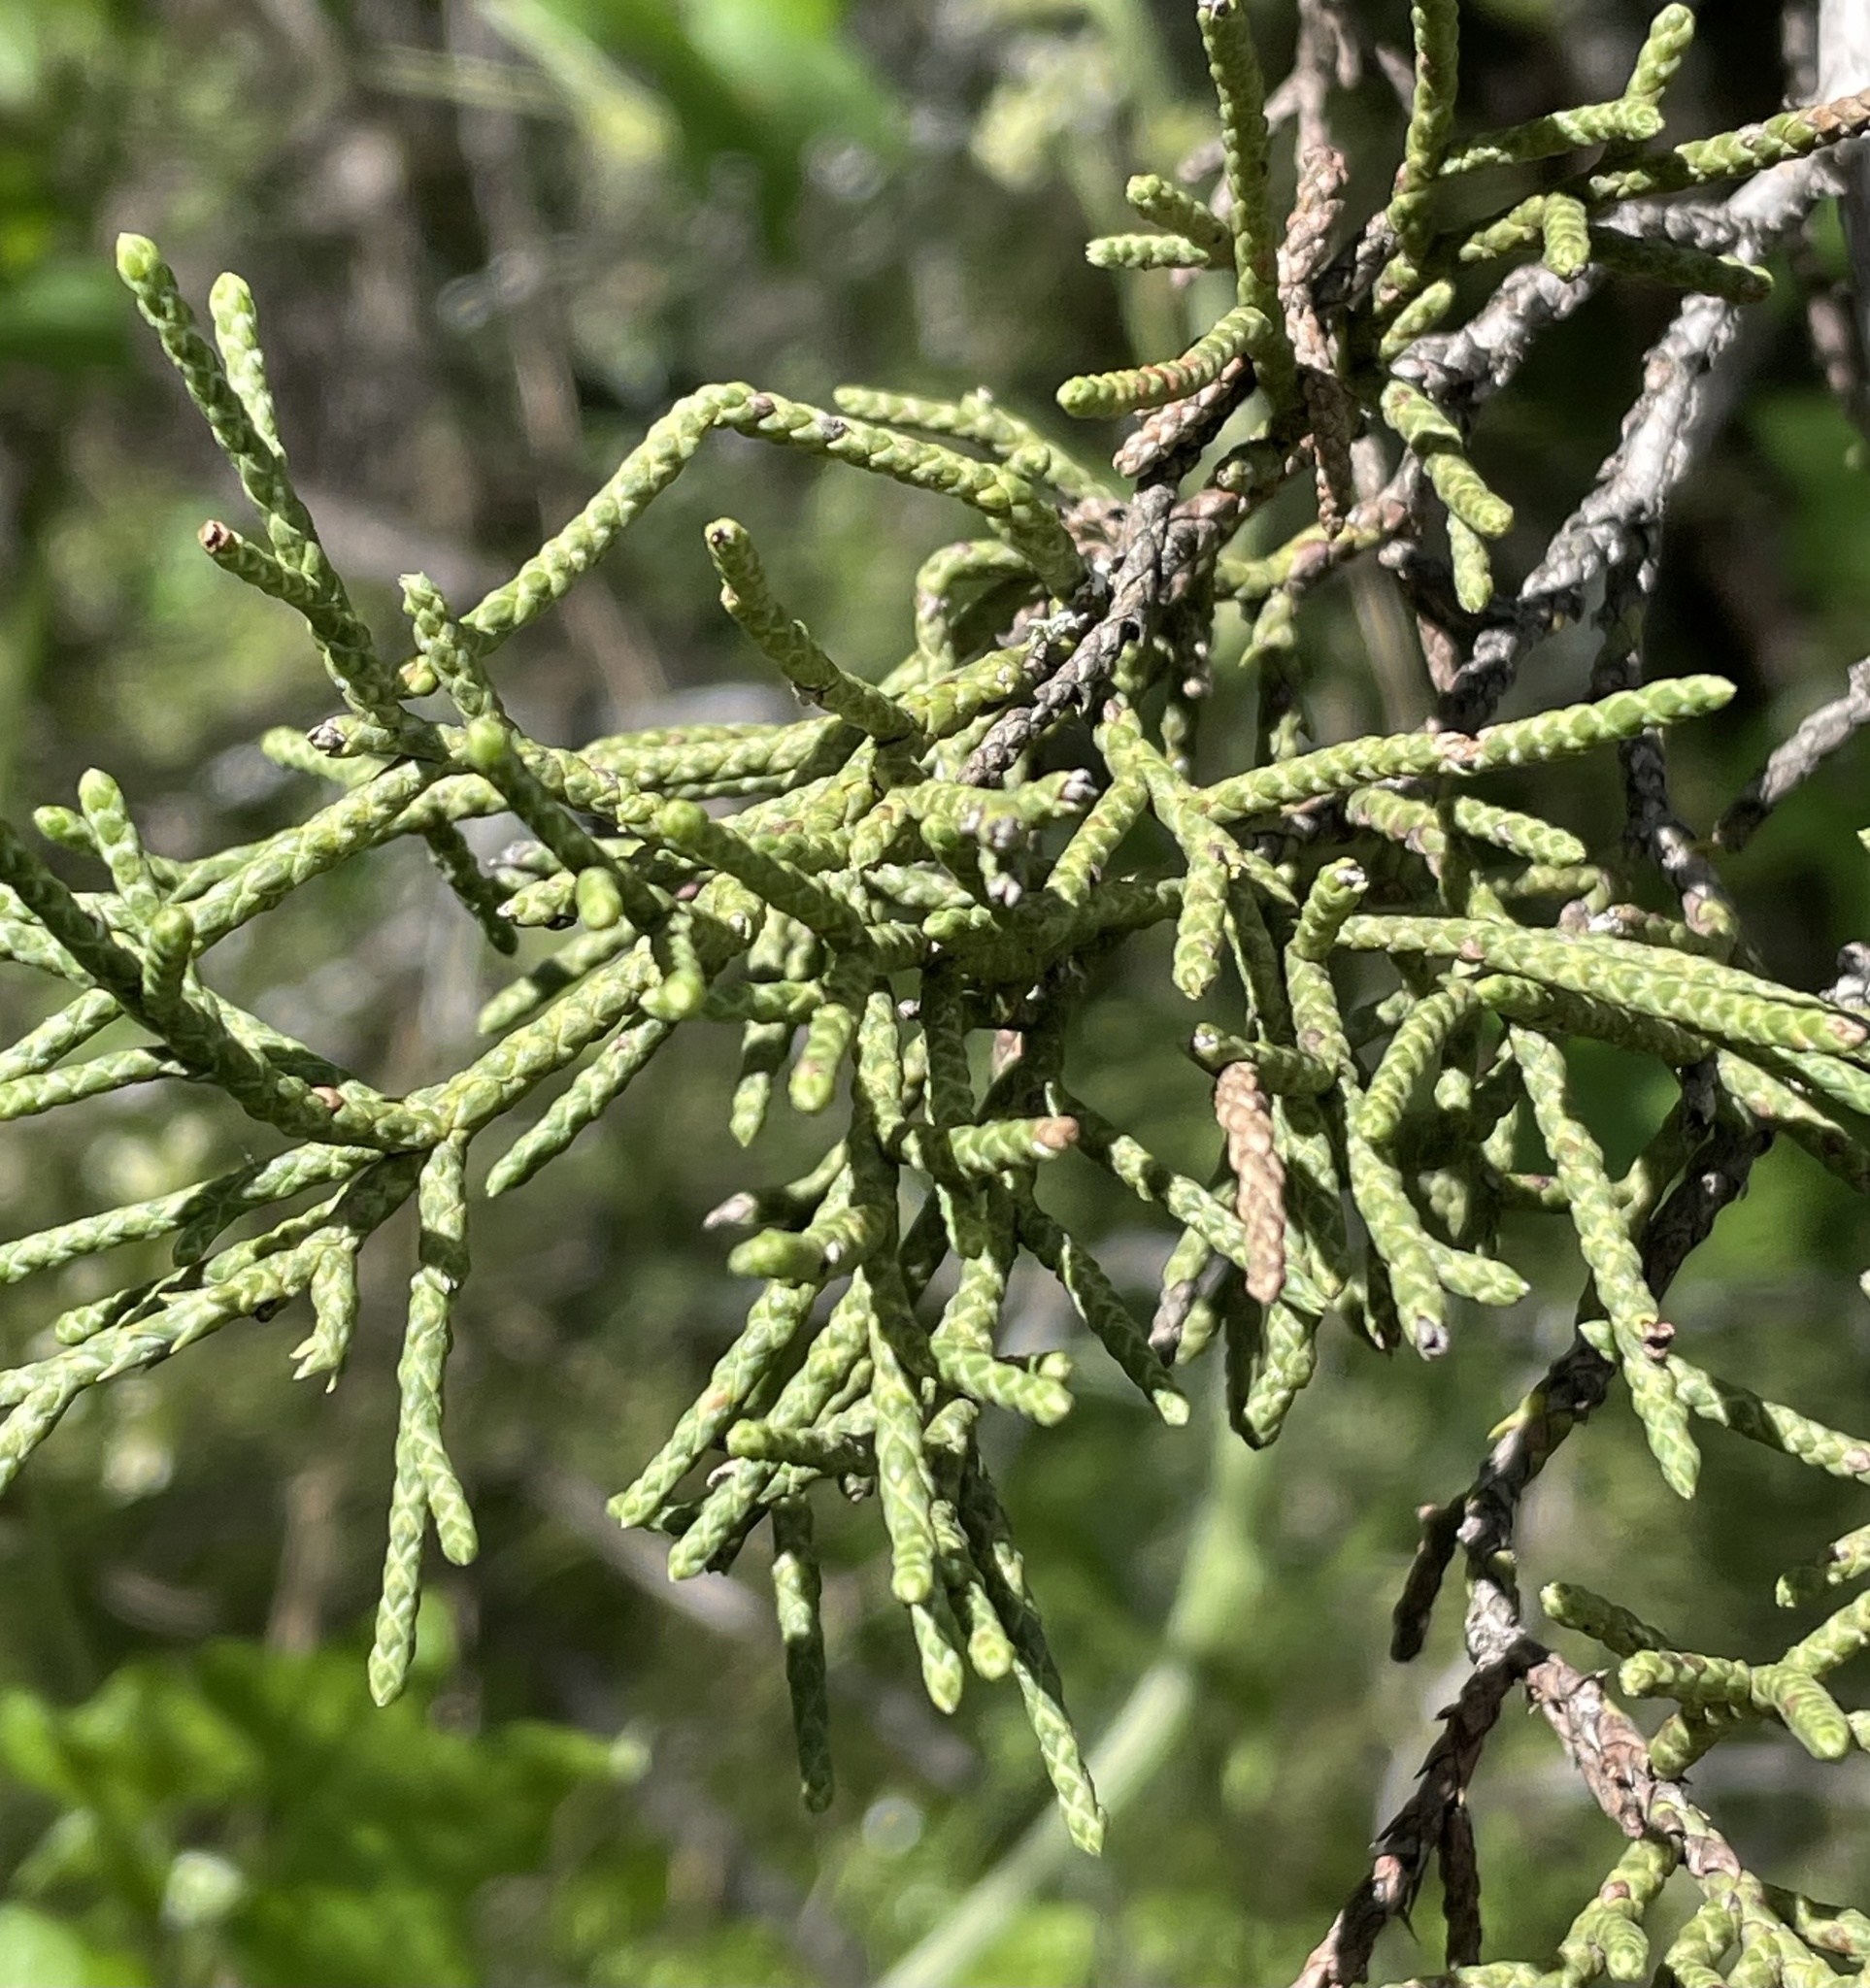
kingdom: Plantae
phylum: Tracheophyta
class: Pinopsida
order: Pinales
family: Cupressaceae
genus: Juniperus
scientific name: Juniperus californica
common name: California juniper
